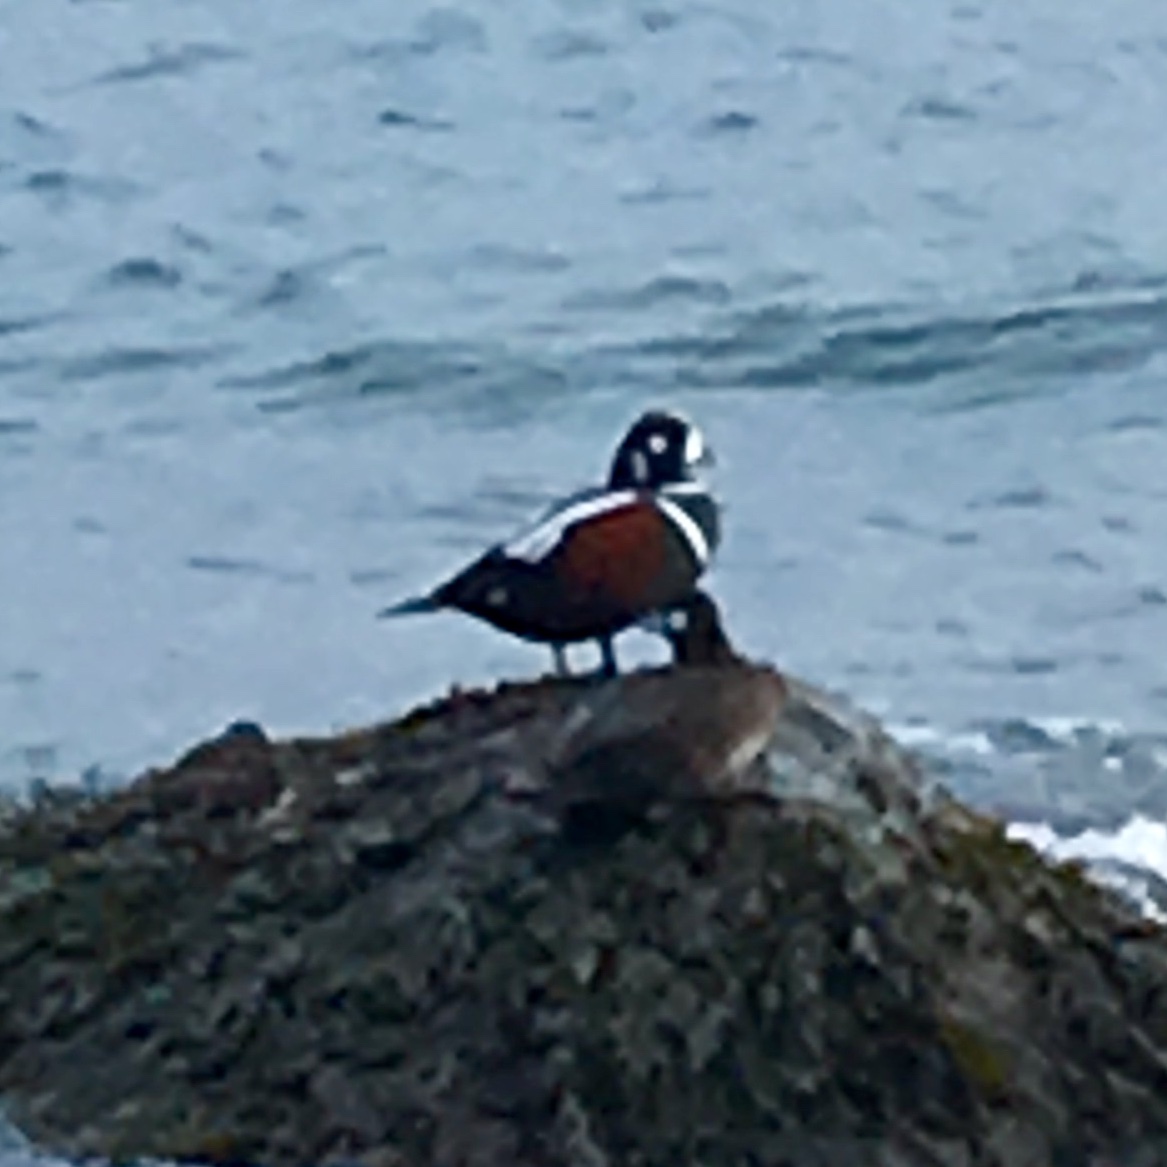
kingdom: Animalia
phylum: Chordata
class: Aves
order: Anseriformes
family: Anatidae
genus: Histrionicus
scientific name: Histrionicus histrionicus
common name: Harlequin duck
